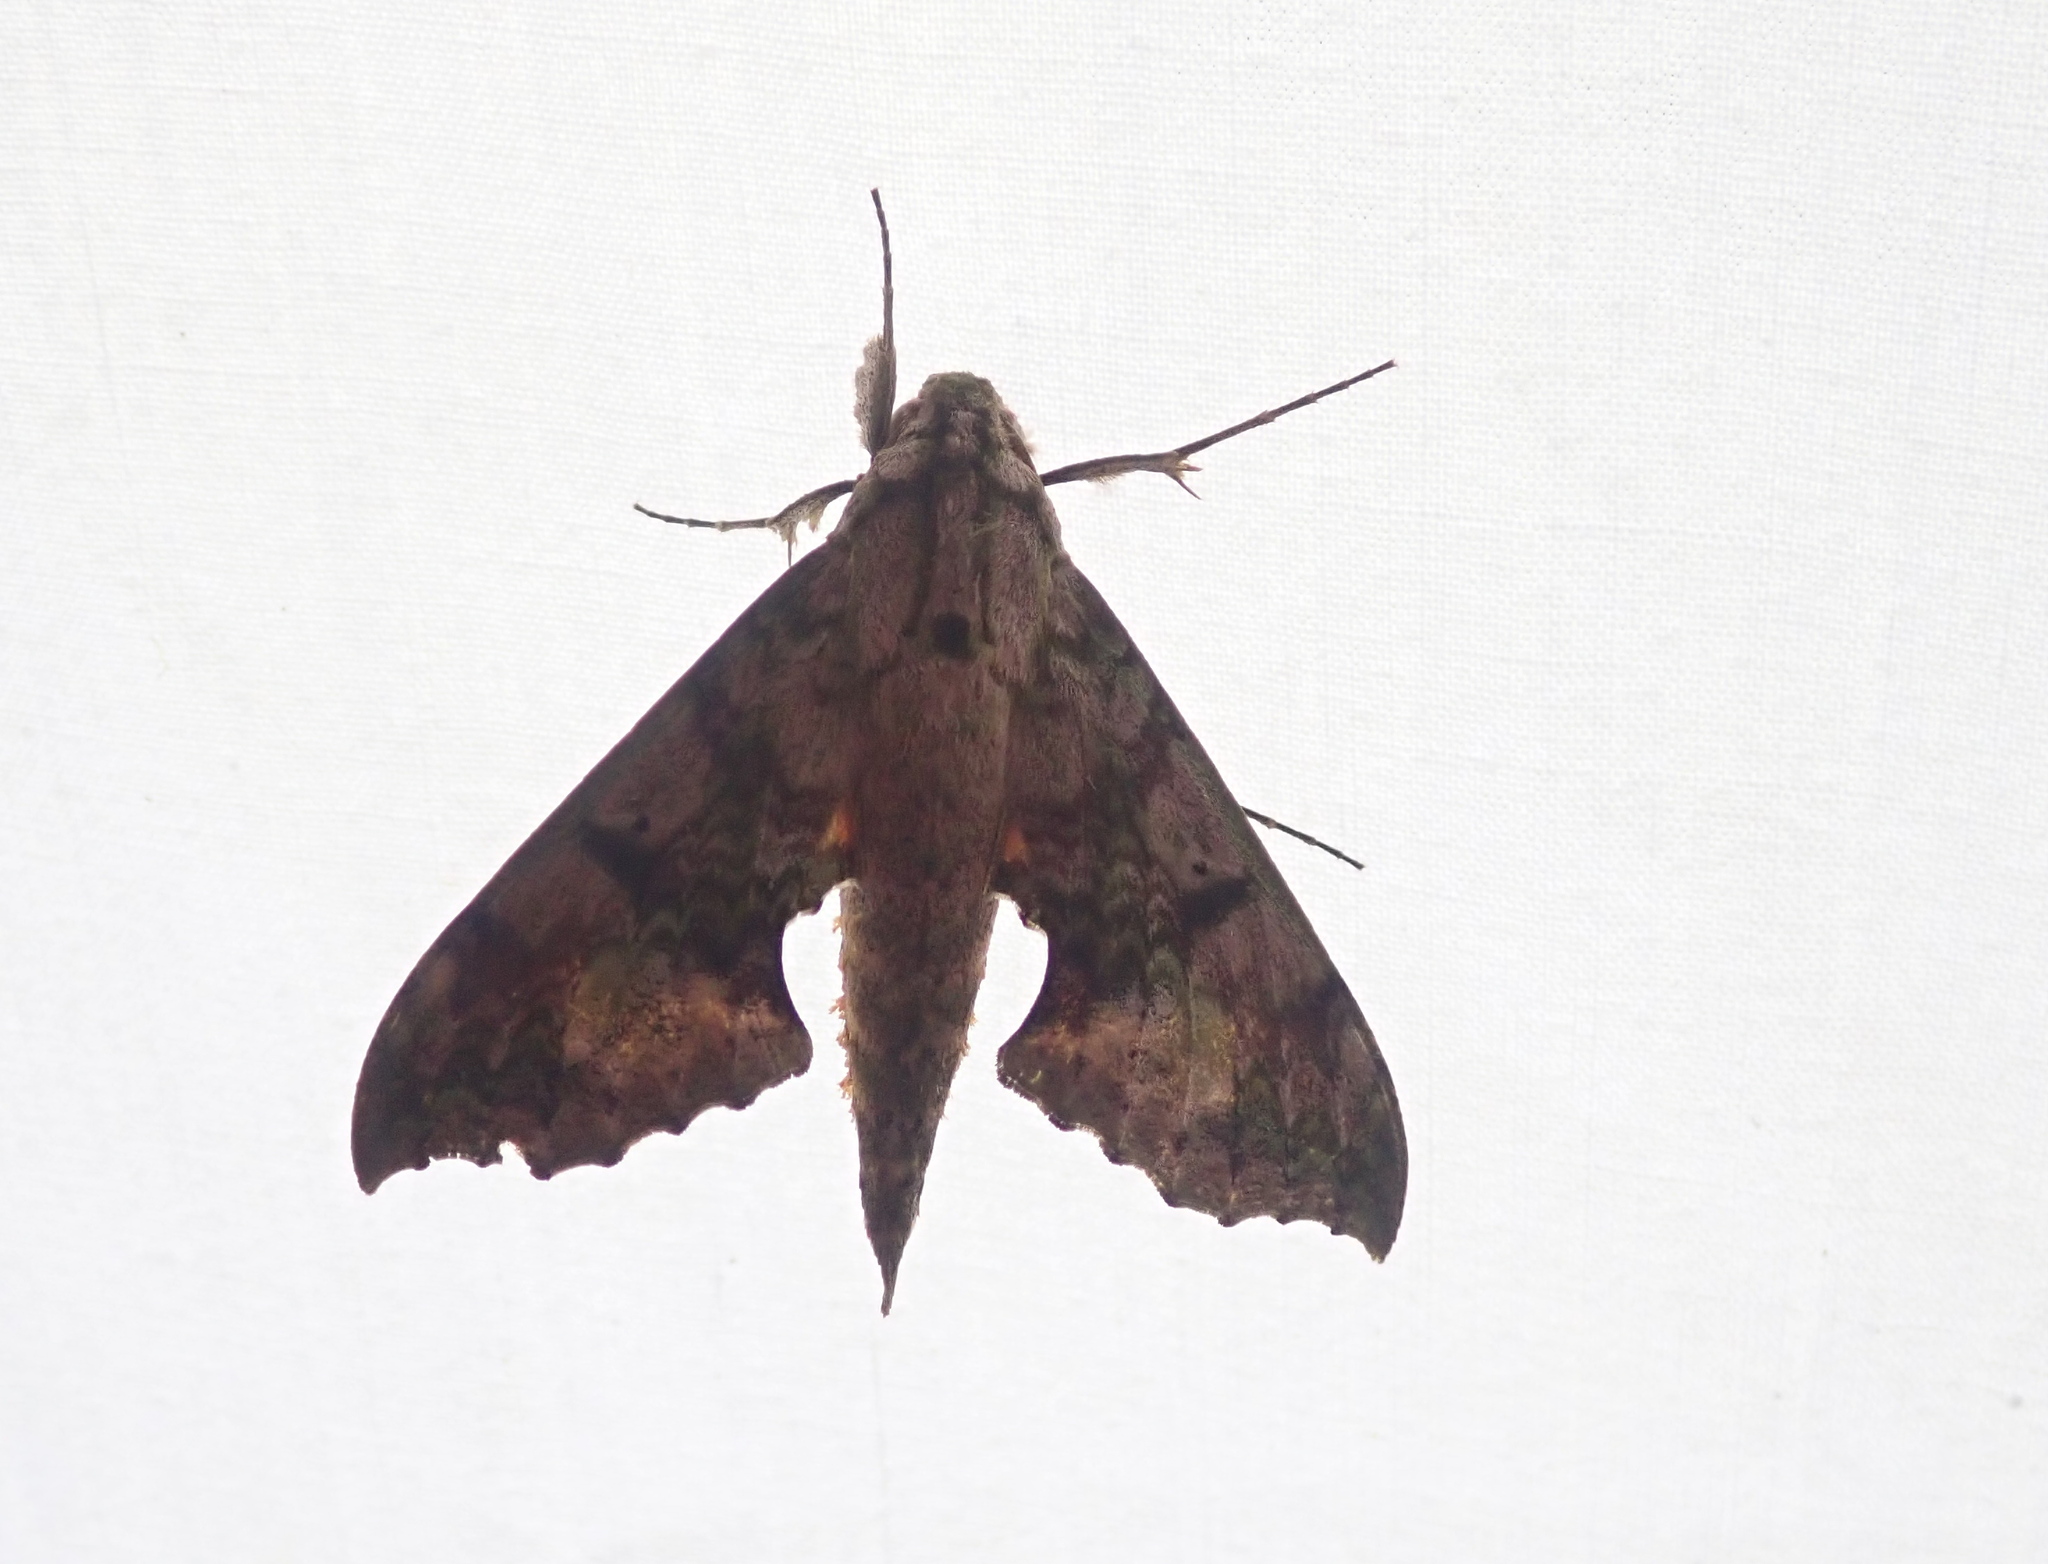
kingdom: Animalia
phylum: Arthropoda
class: Insecta
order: Lepidoptera
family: Sphingidae
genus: Xylophanes
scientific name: Xylophanes zurcheri
